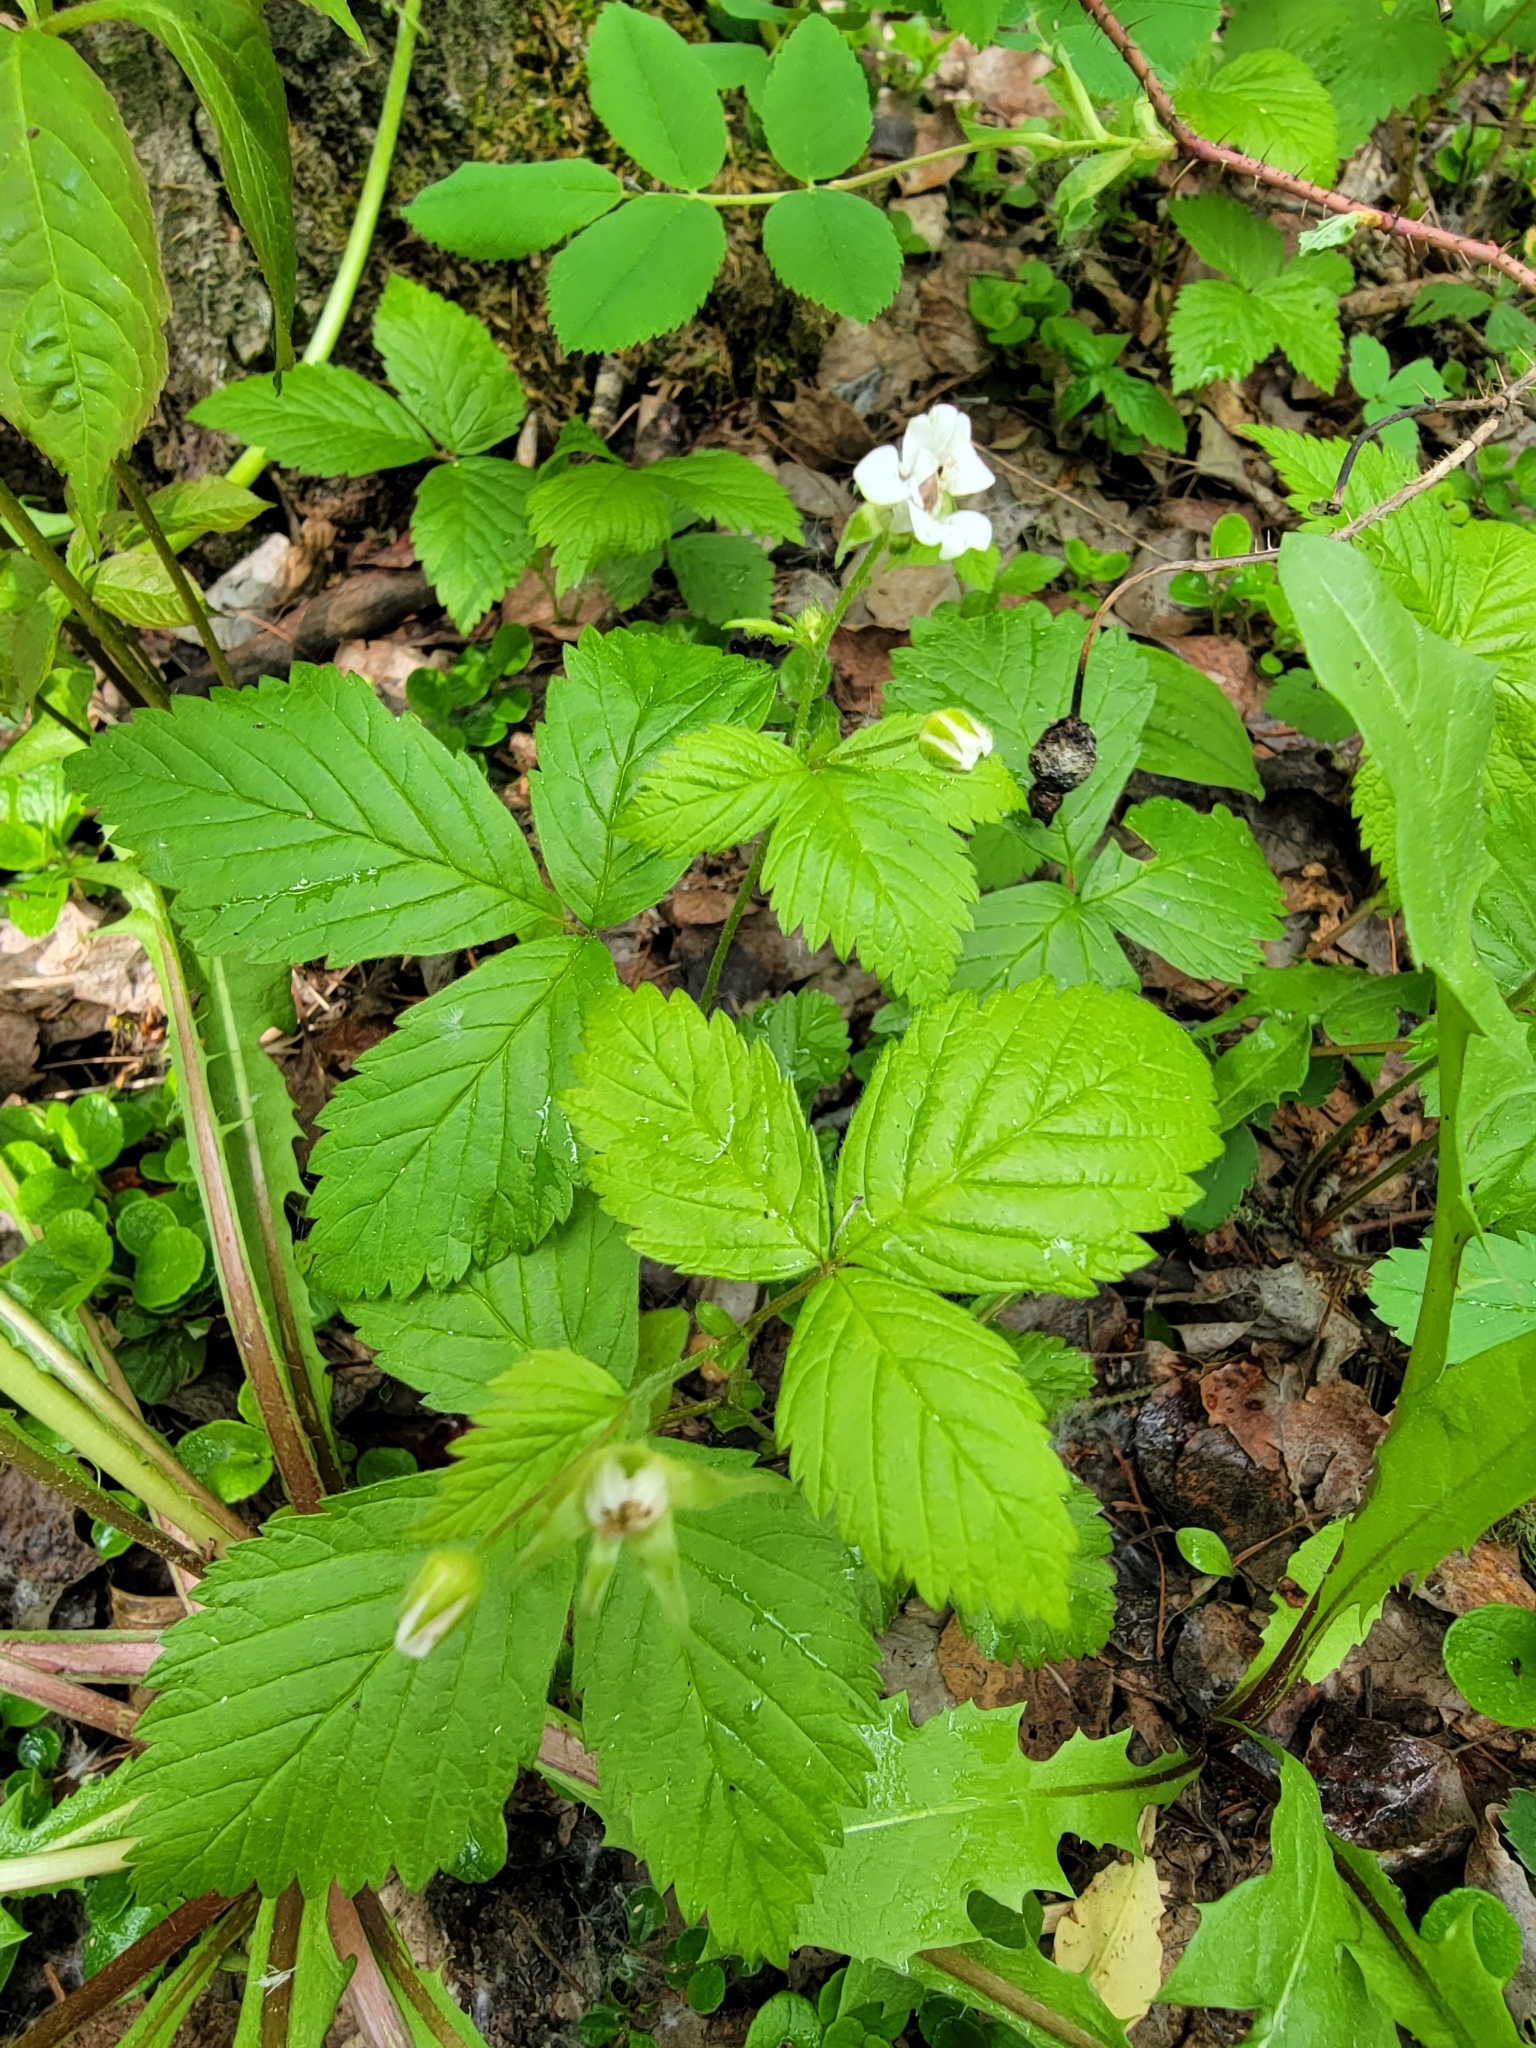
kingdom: Plantae
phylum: Tracheophyta
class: Magnoliopsida
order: Rosales
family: Rosaceae
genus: Rubus
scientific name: Rubus pubescens
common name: Dwarf raspberry
